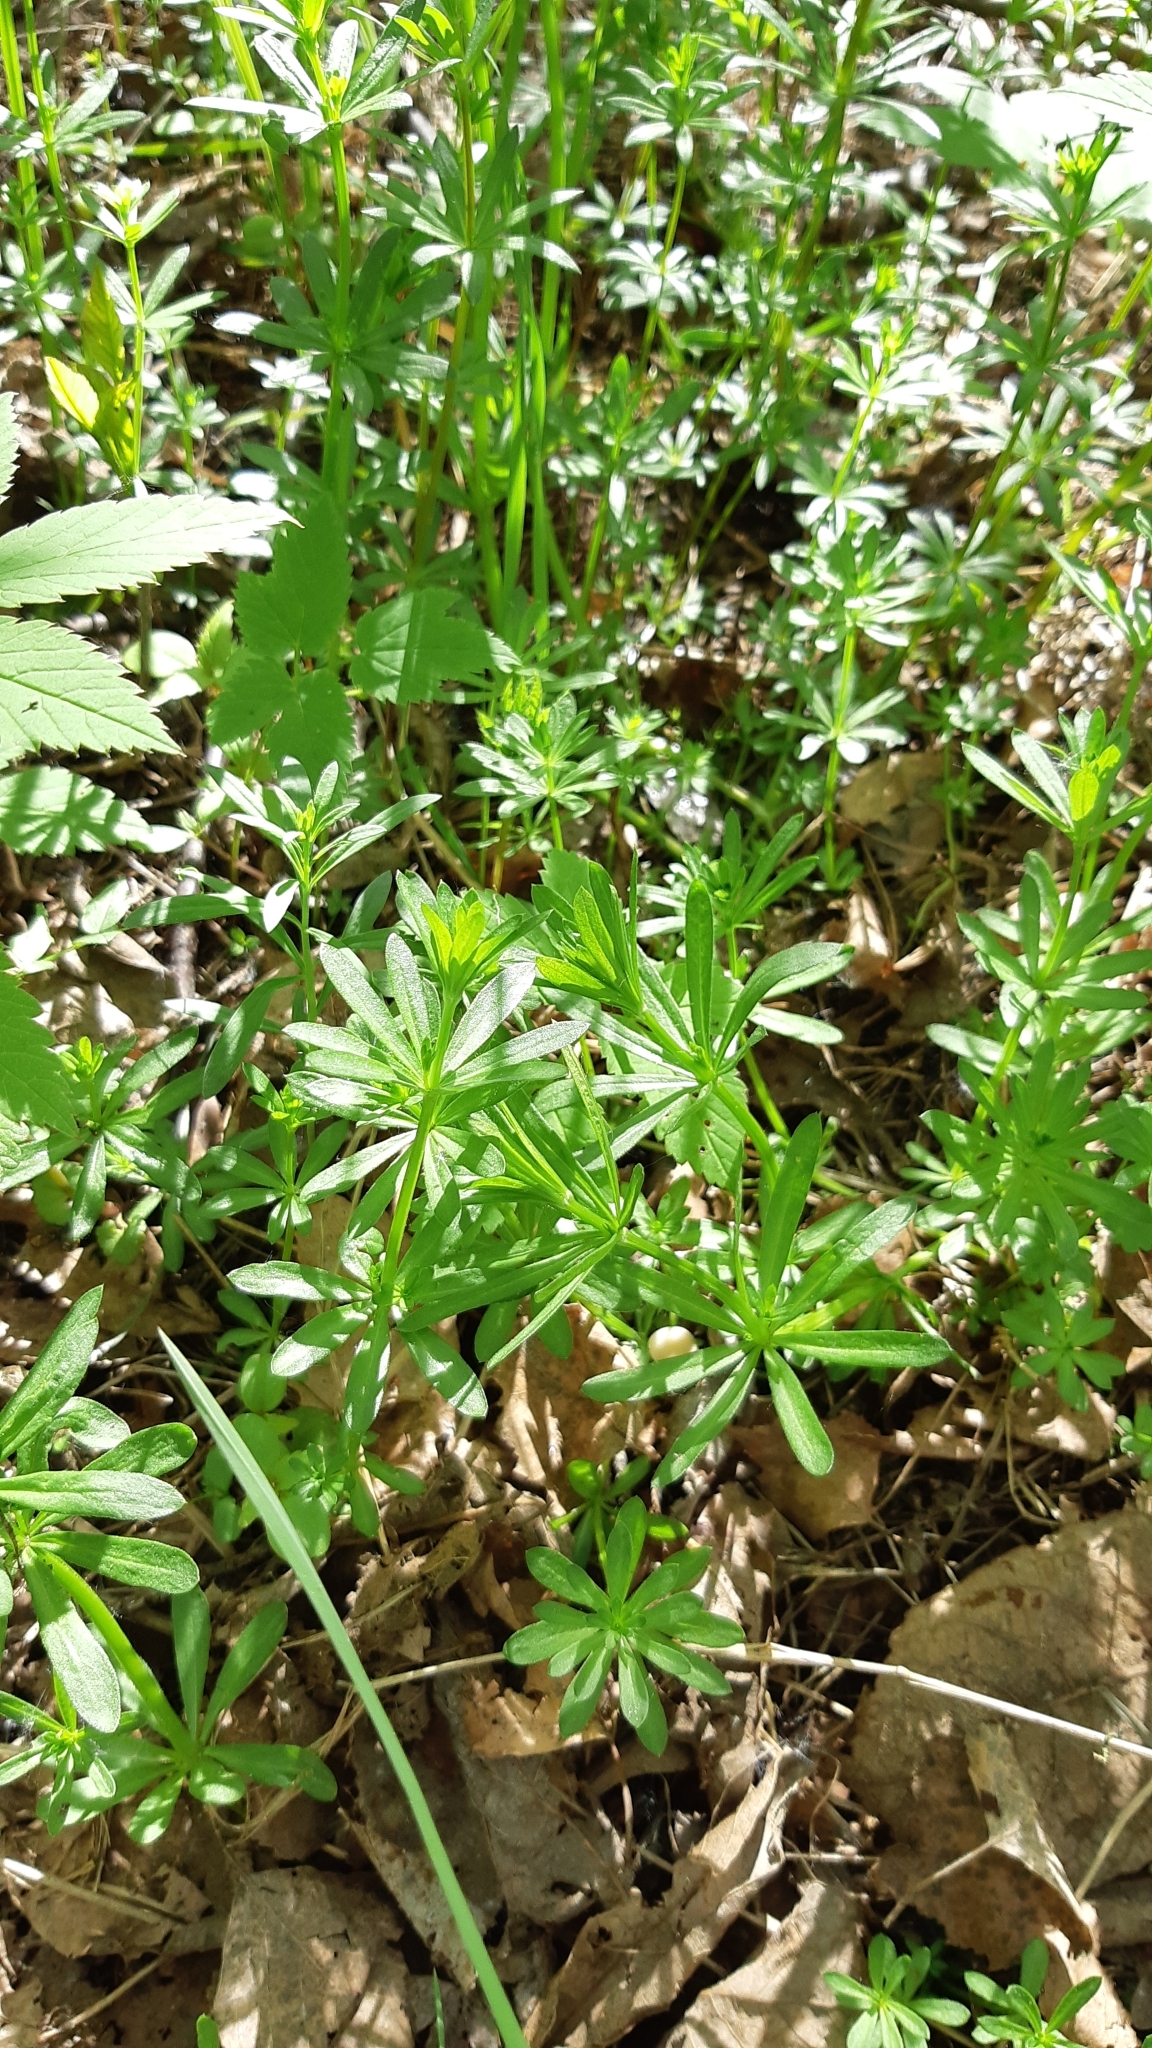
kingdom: Plantae
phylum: Tracheophyta
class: Magnoliopsida
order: Gentianales
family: Rubiaceae
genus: Galium
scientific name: Galium mollugo
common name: Hedge bedstraw
